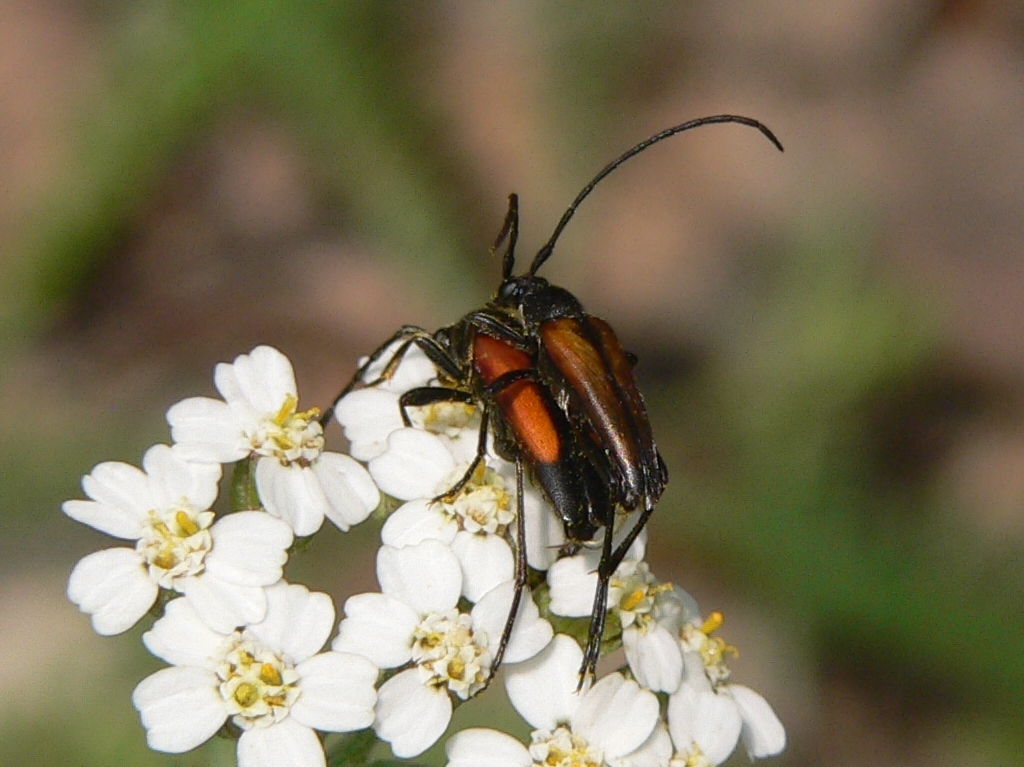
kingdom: Animalia
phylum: Arthropoda
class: Insecta
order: Coleoptera
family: Cerambycidae
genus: Stenurella
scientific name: Stenurella melanura
